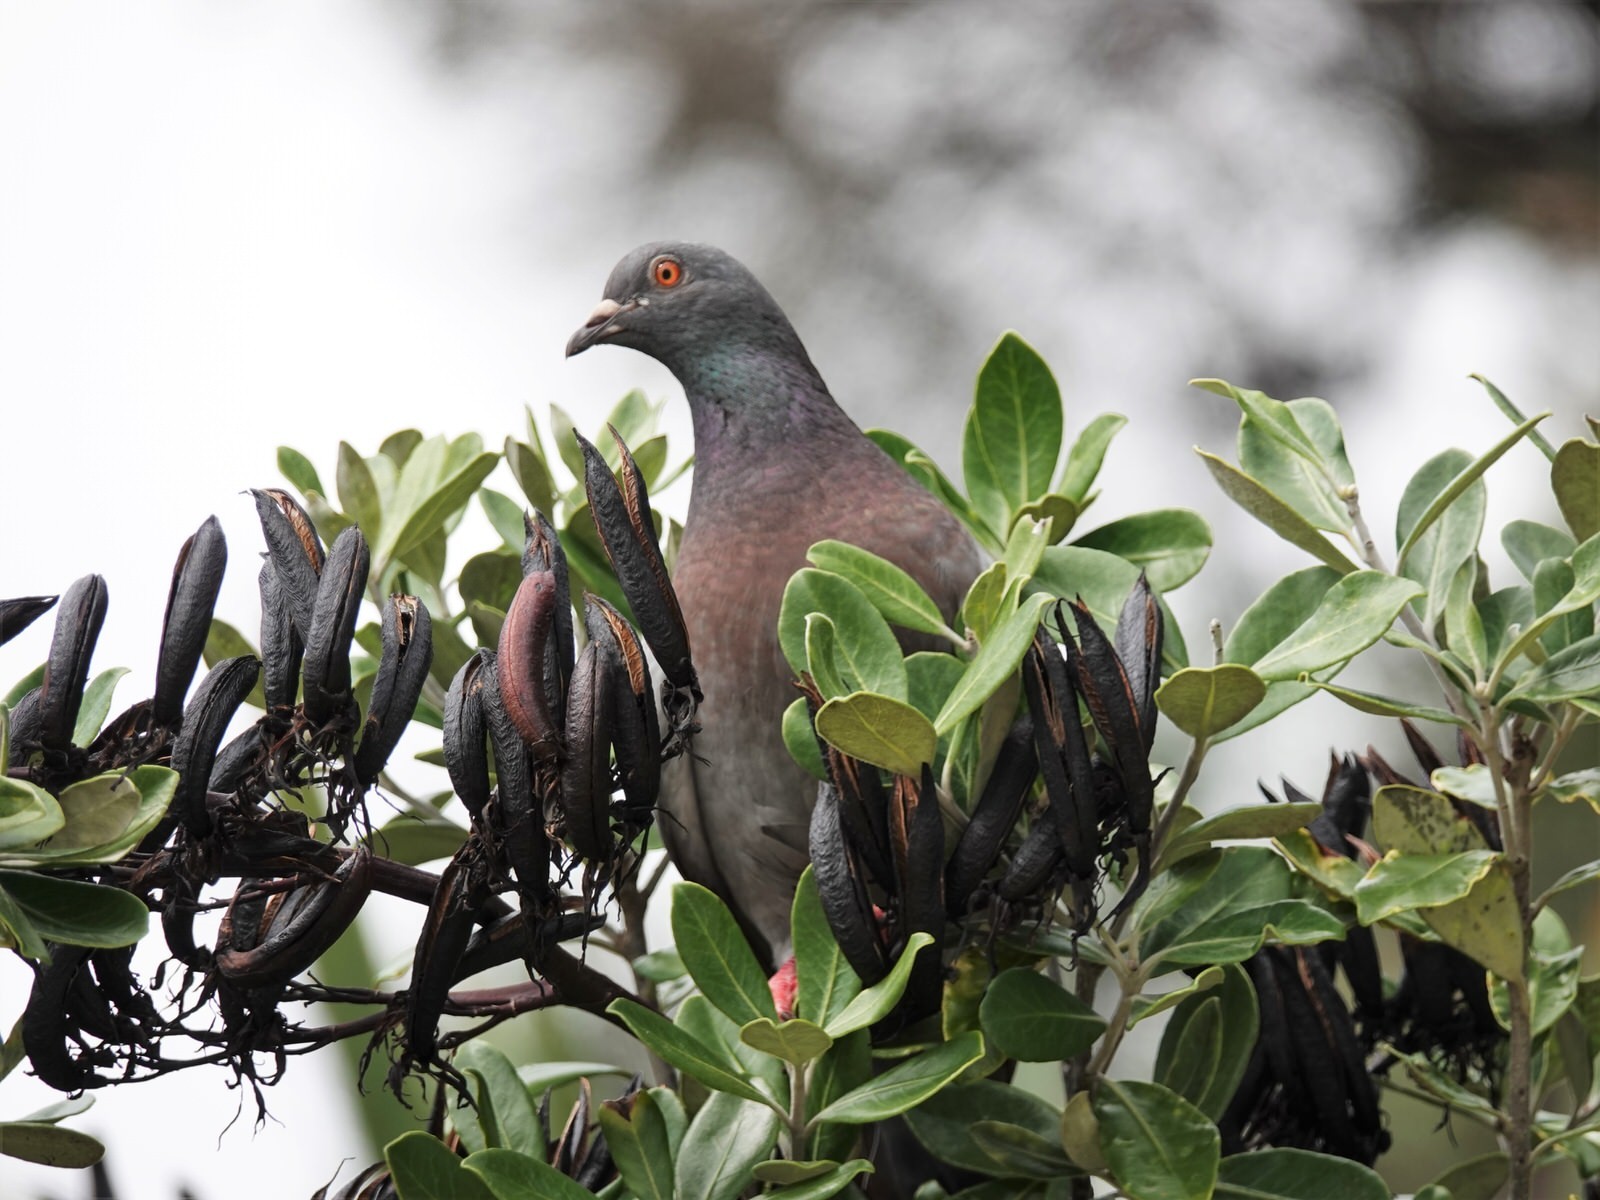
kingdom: Animalia
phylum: Chordata
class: Aves
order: Columbiformes
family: Columbidae
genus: Columba
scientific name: Columba livia
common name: Rock pigeon
